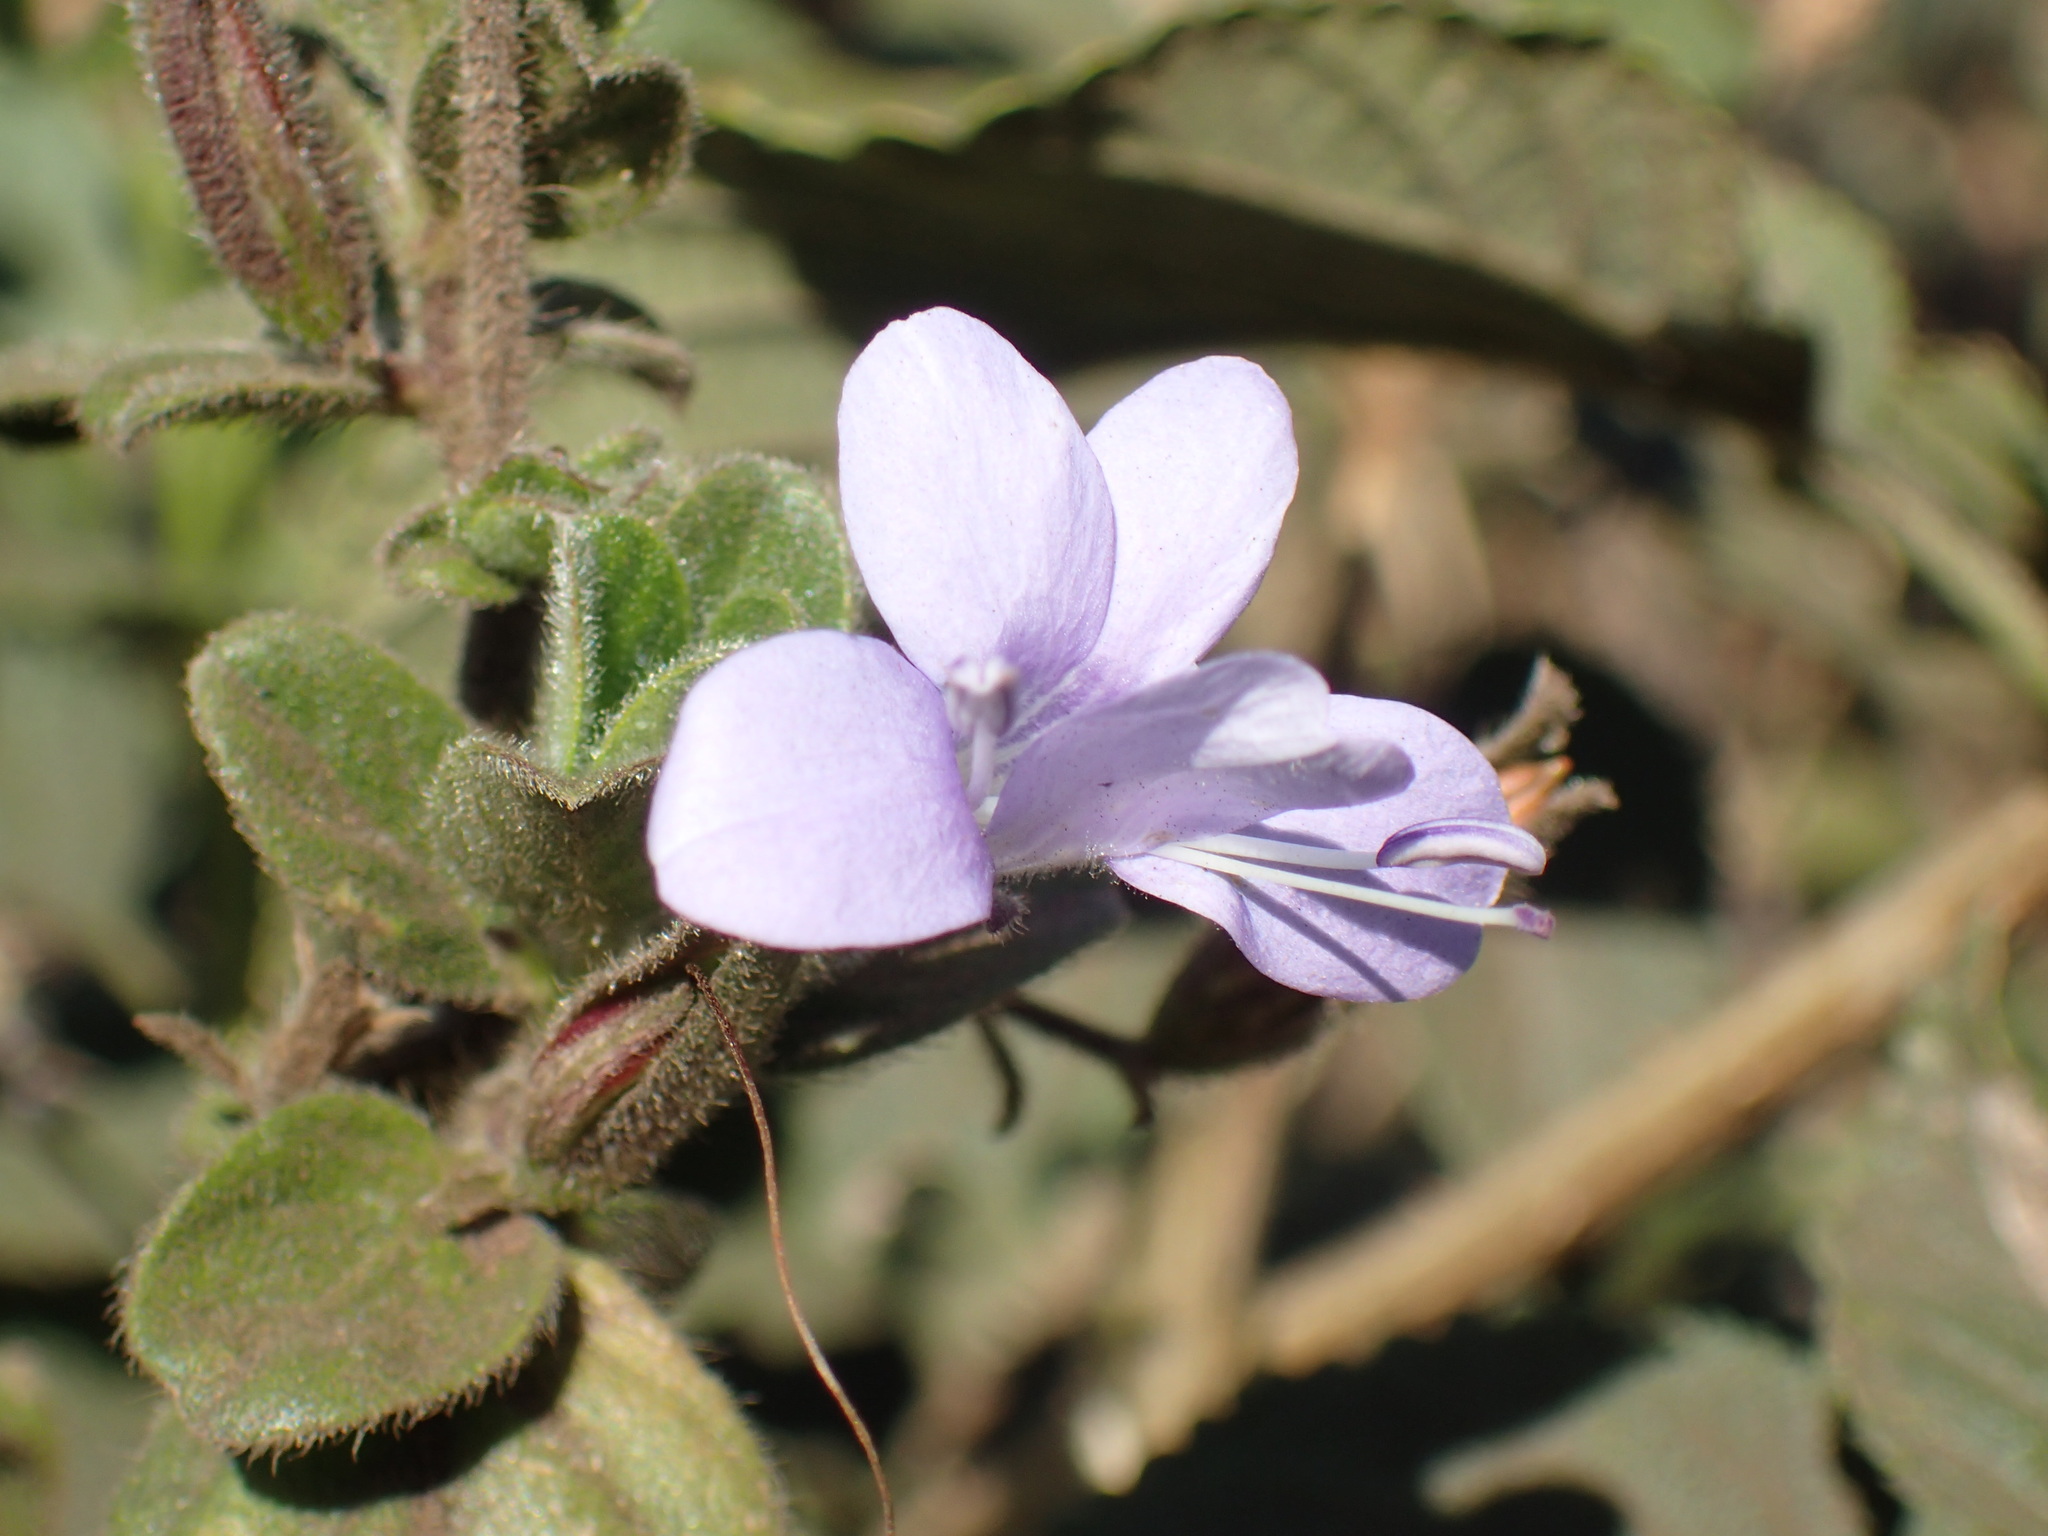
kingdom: Plantae
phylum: Tracheophyta
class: Magnoliopsida
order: Lamiales
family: Acanthaceae
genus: Barleria
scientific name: Barleria obtusa
